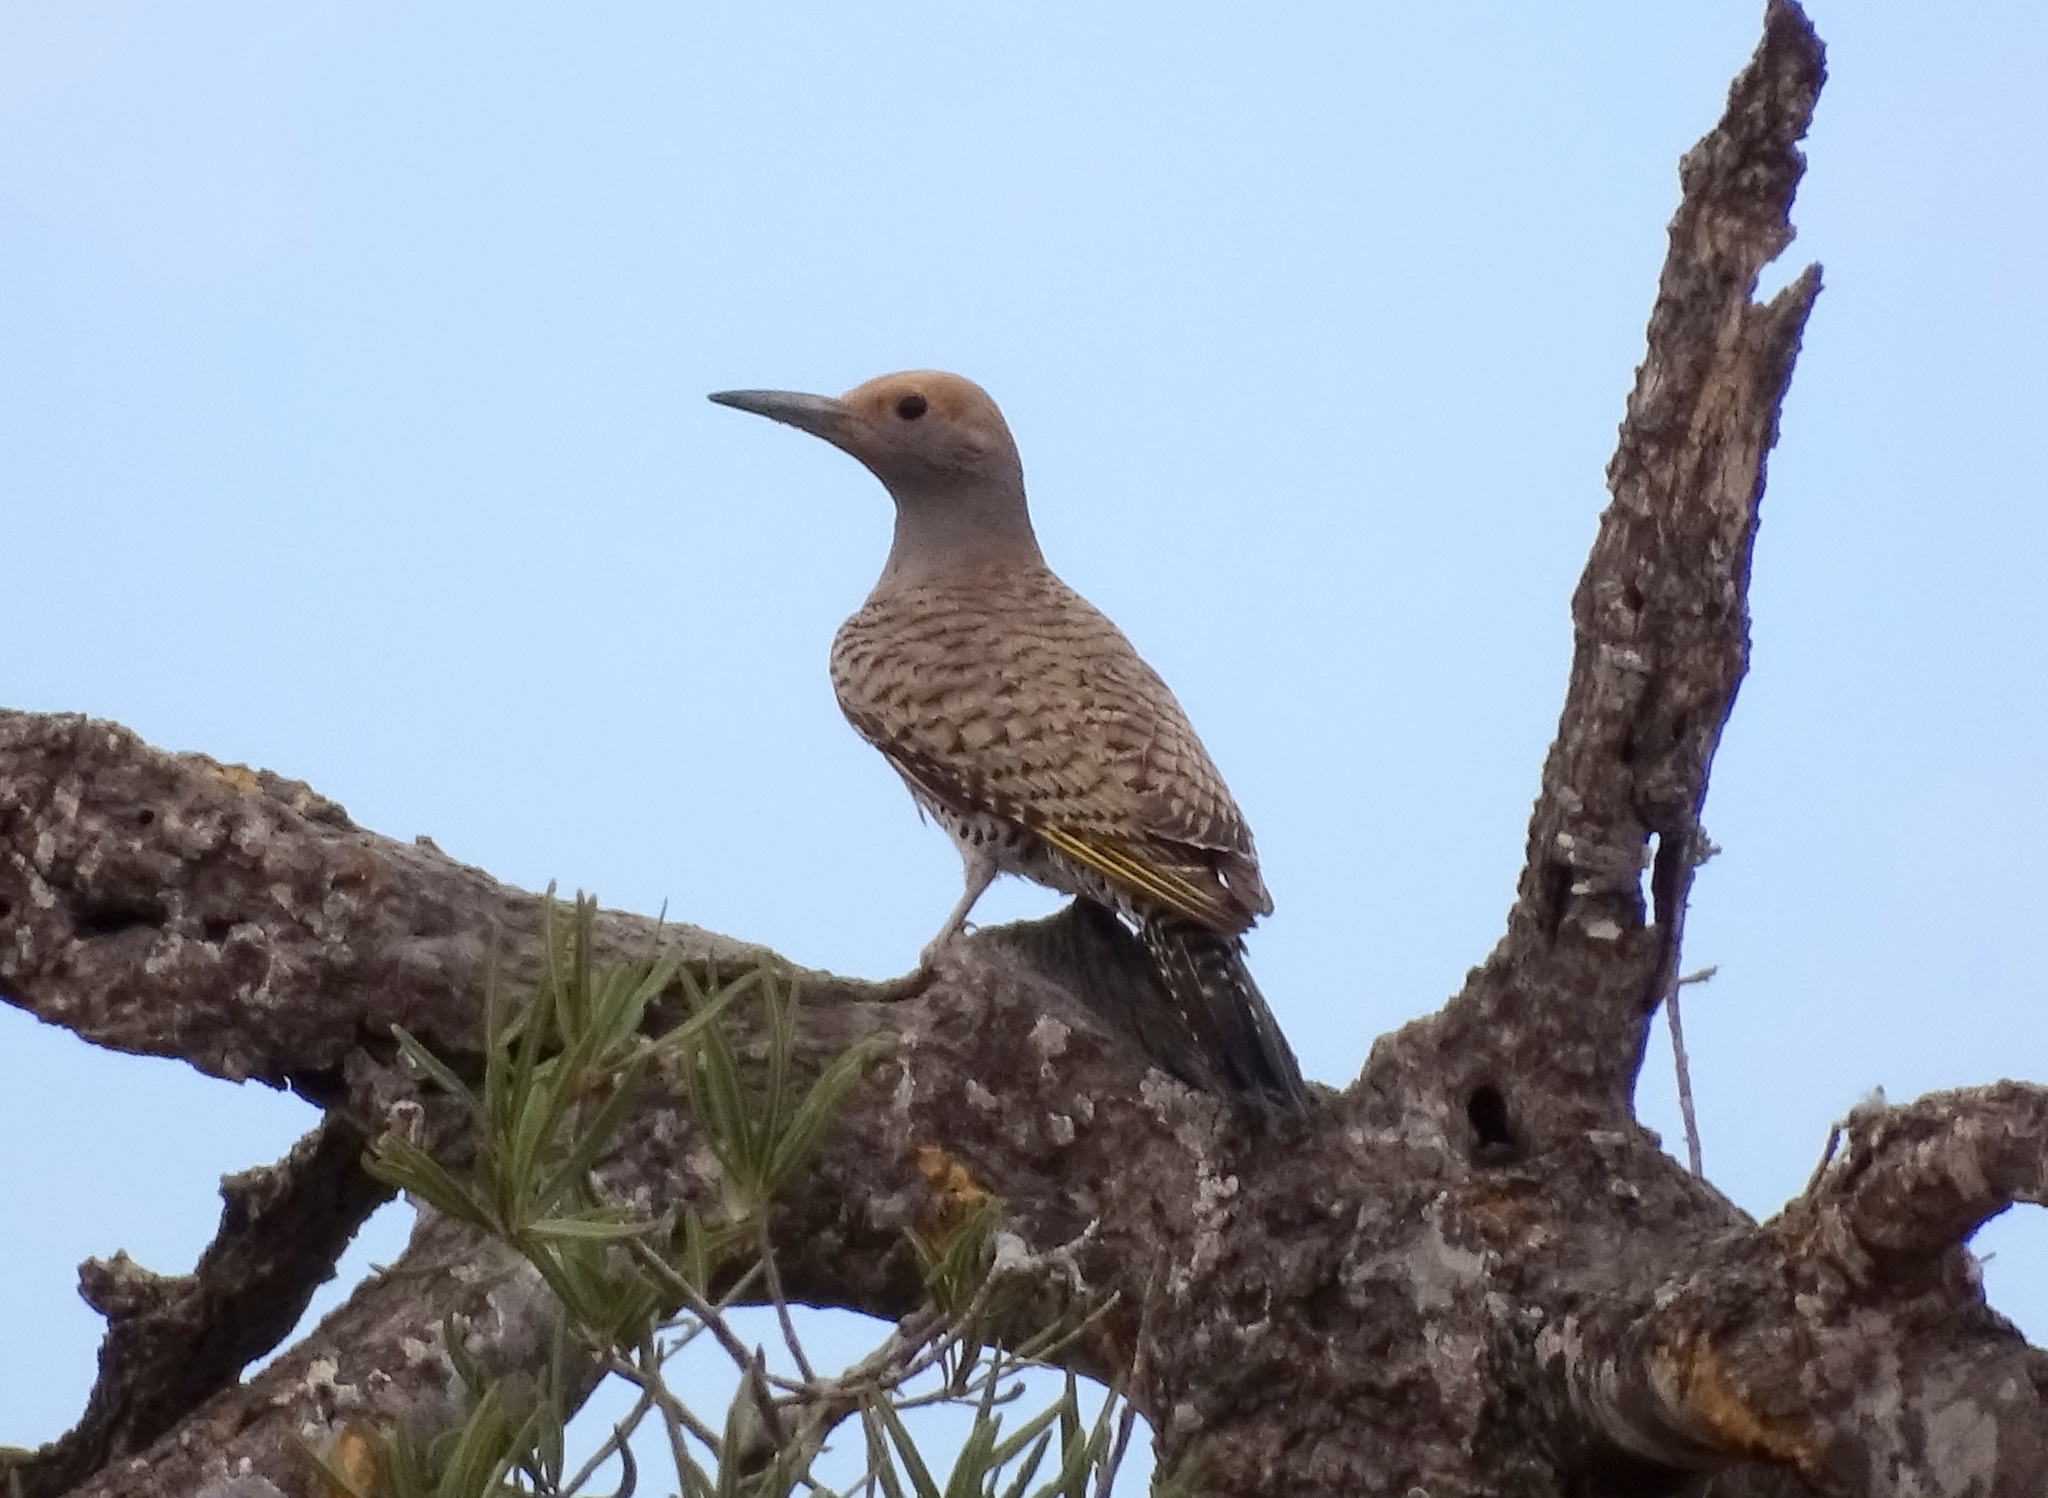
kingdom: Animalia
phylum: Chordata
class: Aves
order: Piciformes
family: Picidae
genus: Colaptes
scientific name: Colaptes chrysoides
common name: Gilded flicker
